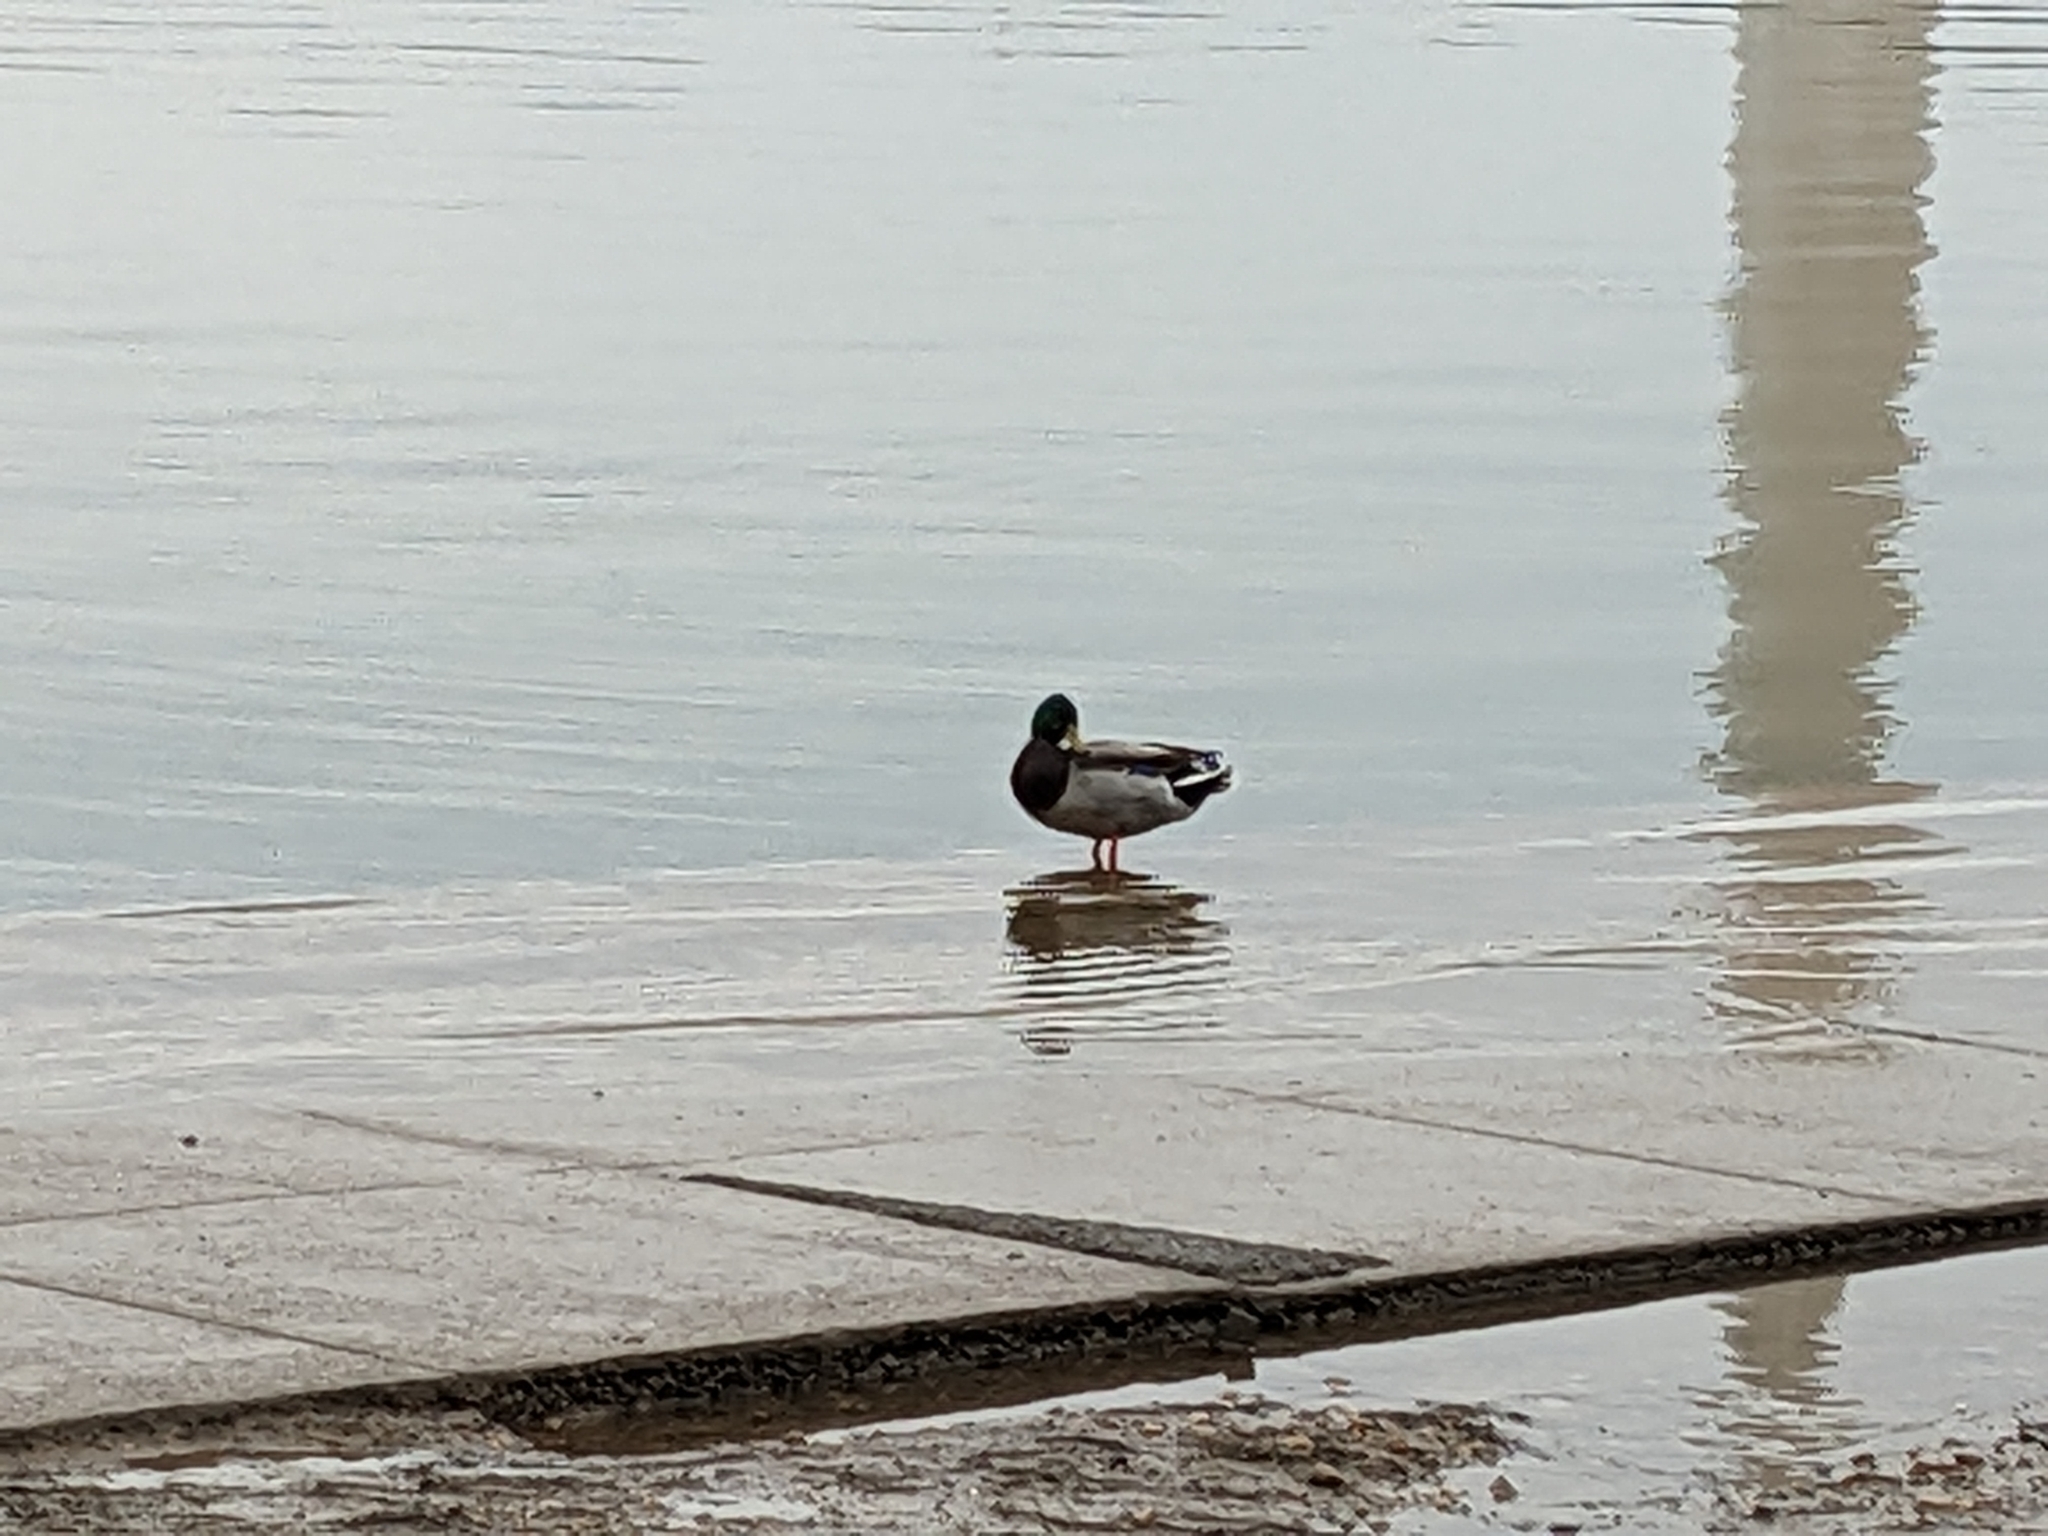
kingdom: Animalia
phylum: Chordata
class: Aves
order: Anseriformes
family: Anatidae
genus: Anas
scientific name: Anas platyrhynchos
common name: Mallard
